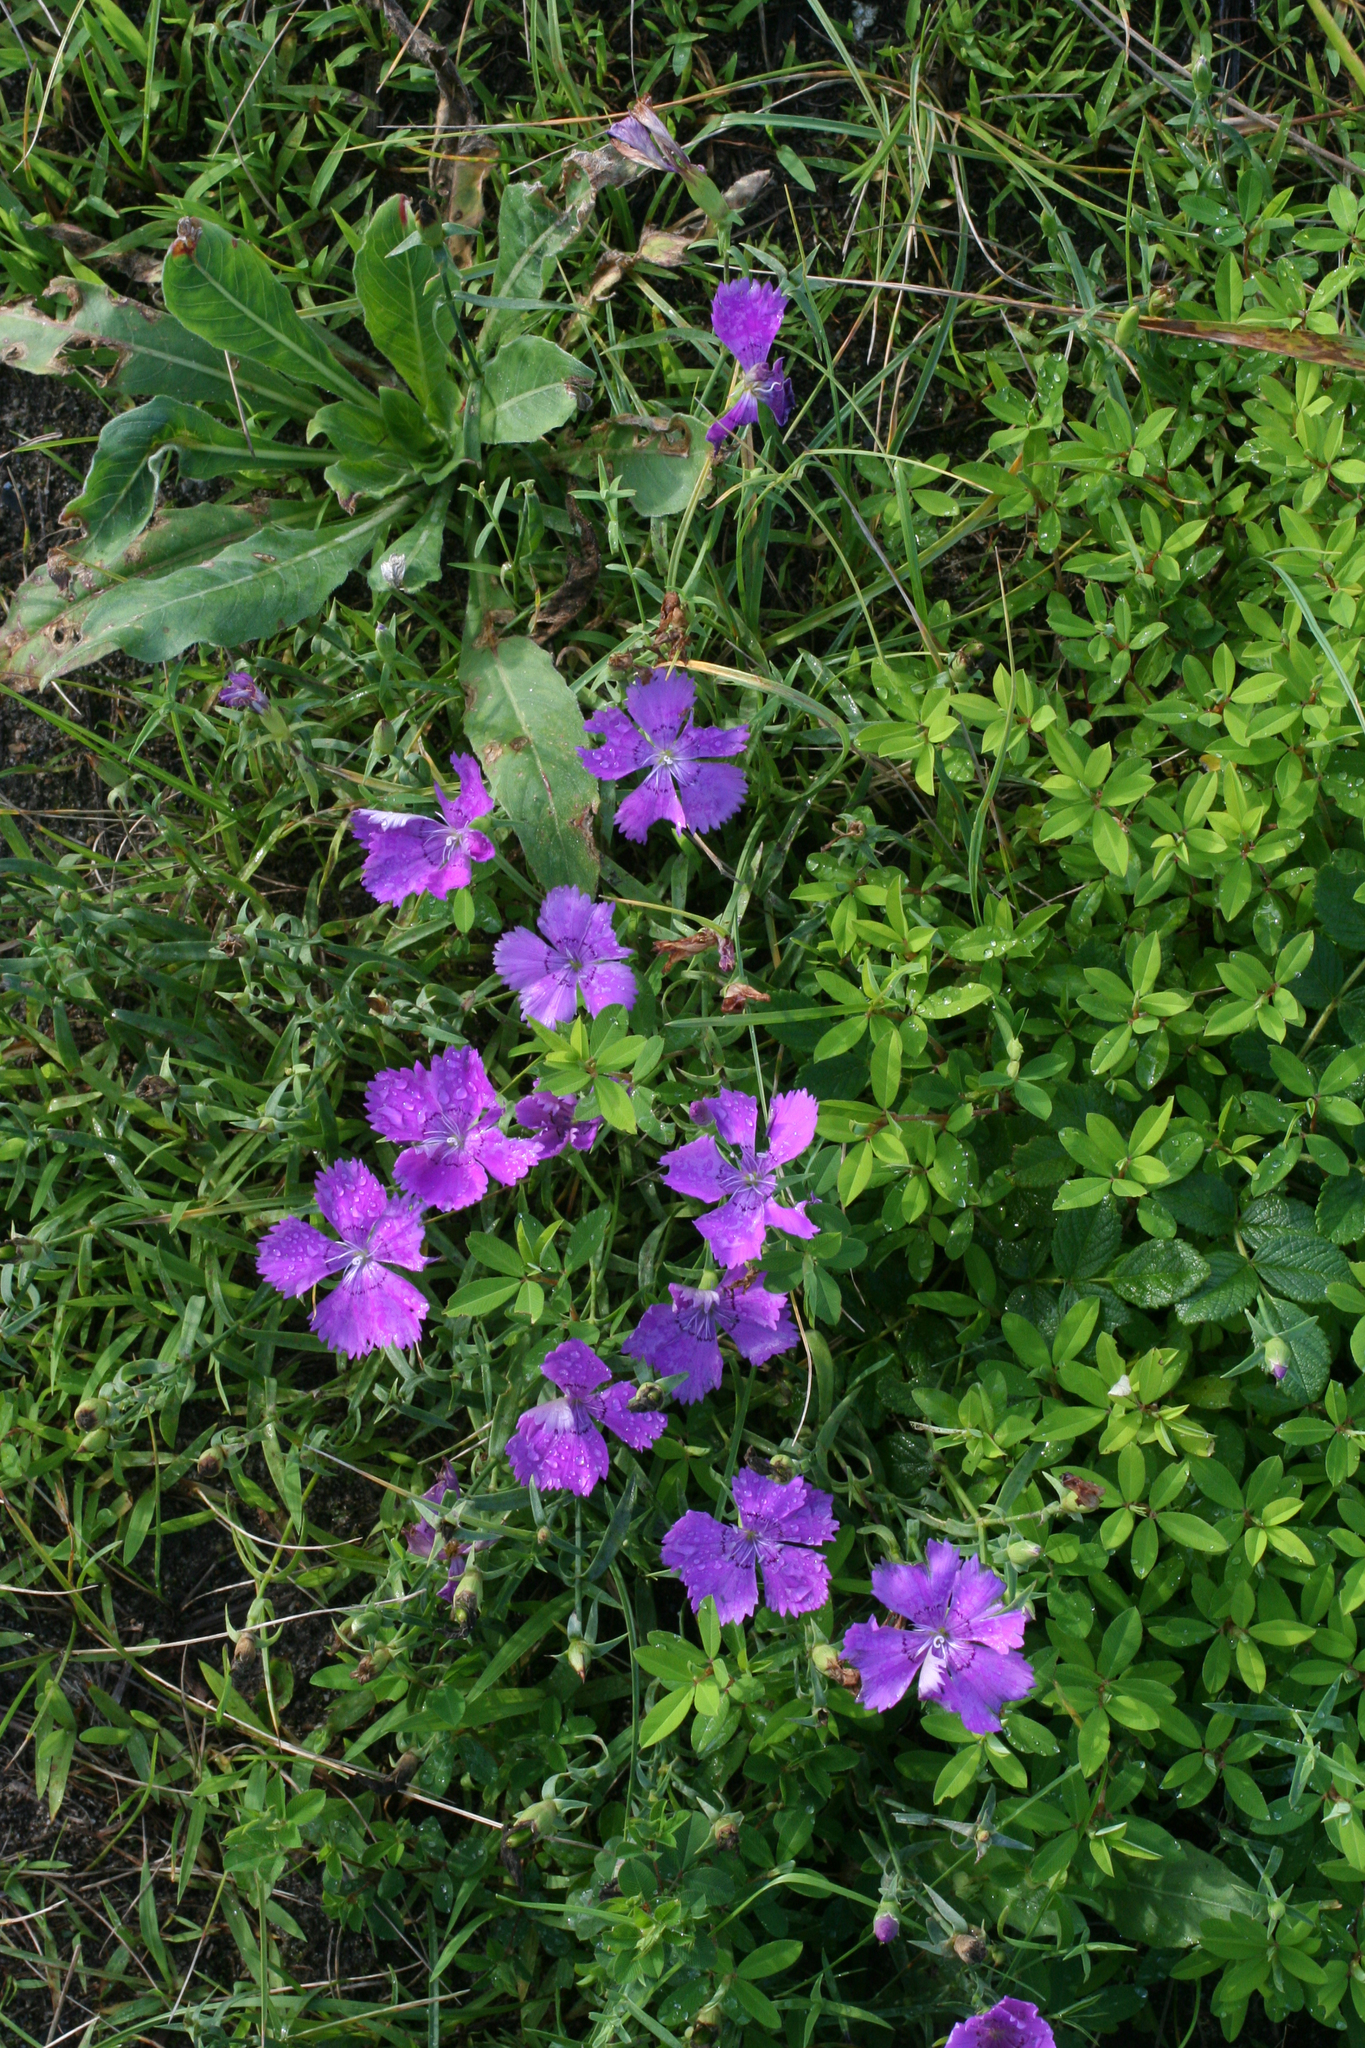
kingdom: Plantae
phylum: Tracheophyta
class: Magnoliopsida
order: Caryophyllales
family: Caryophyllaceae
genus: Dianthus
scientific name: Dianthus chinensis
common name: Rainbow pink
